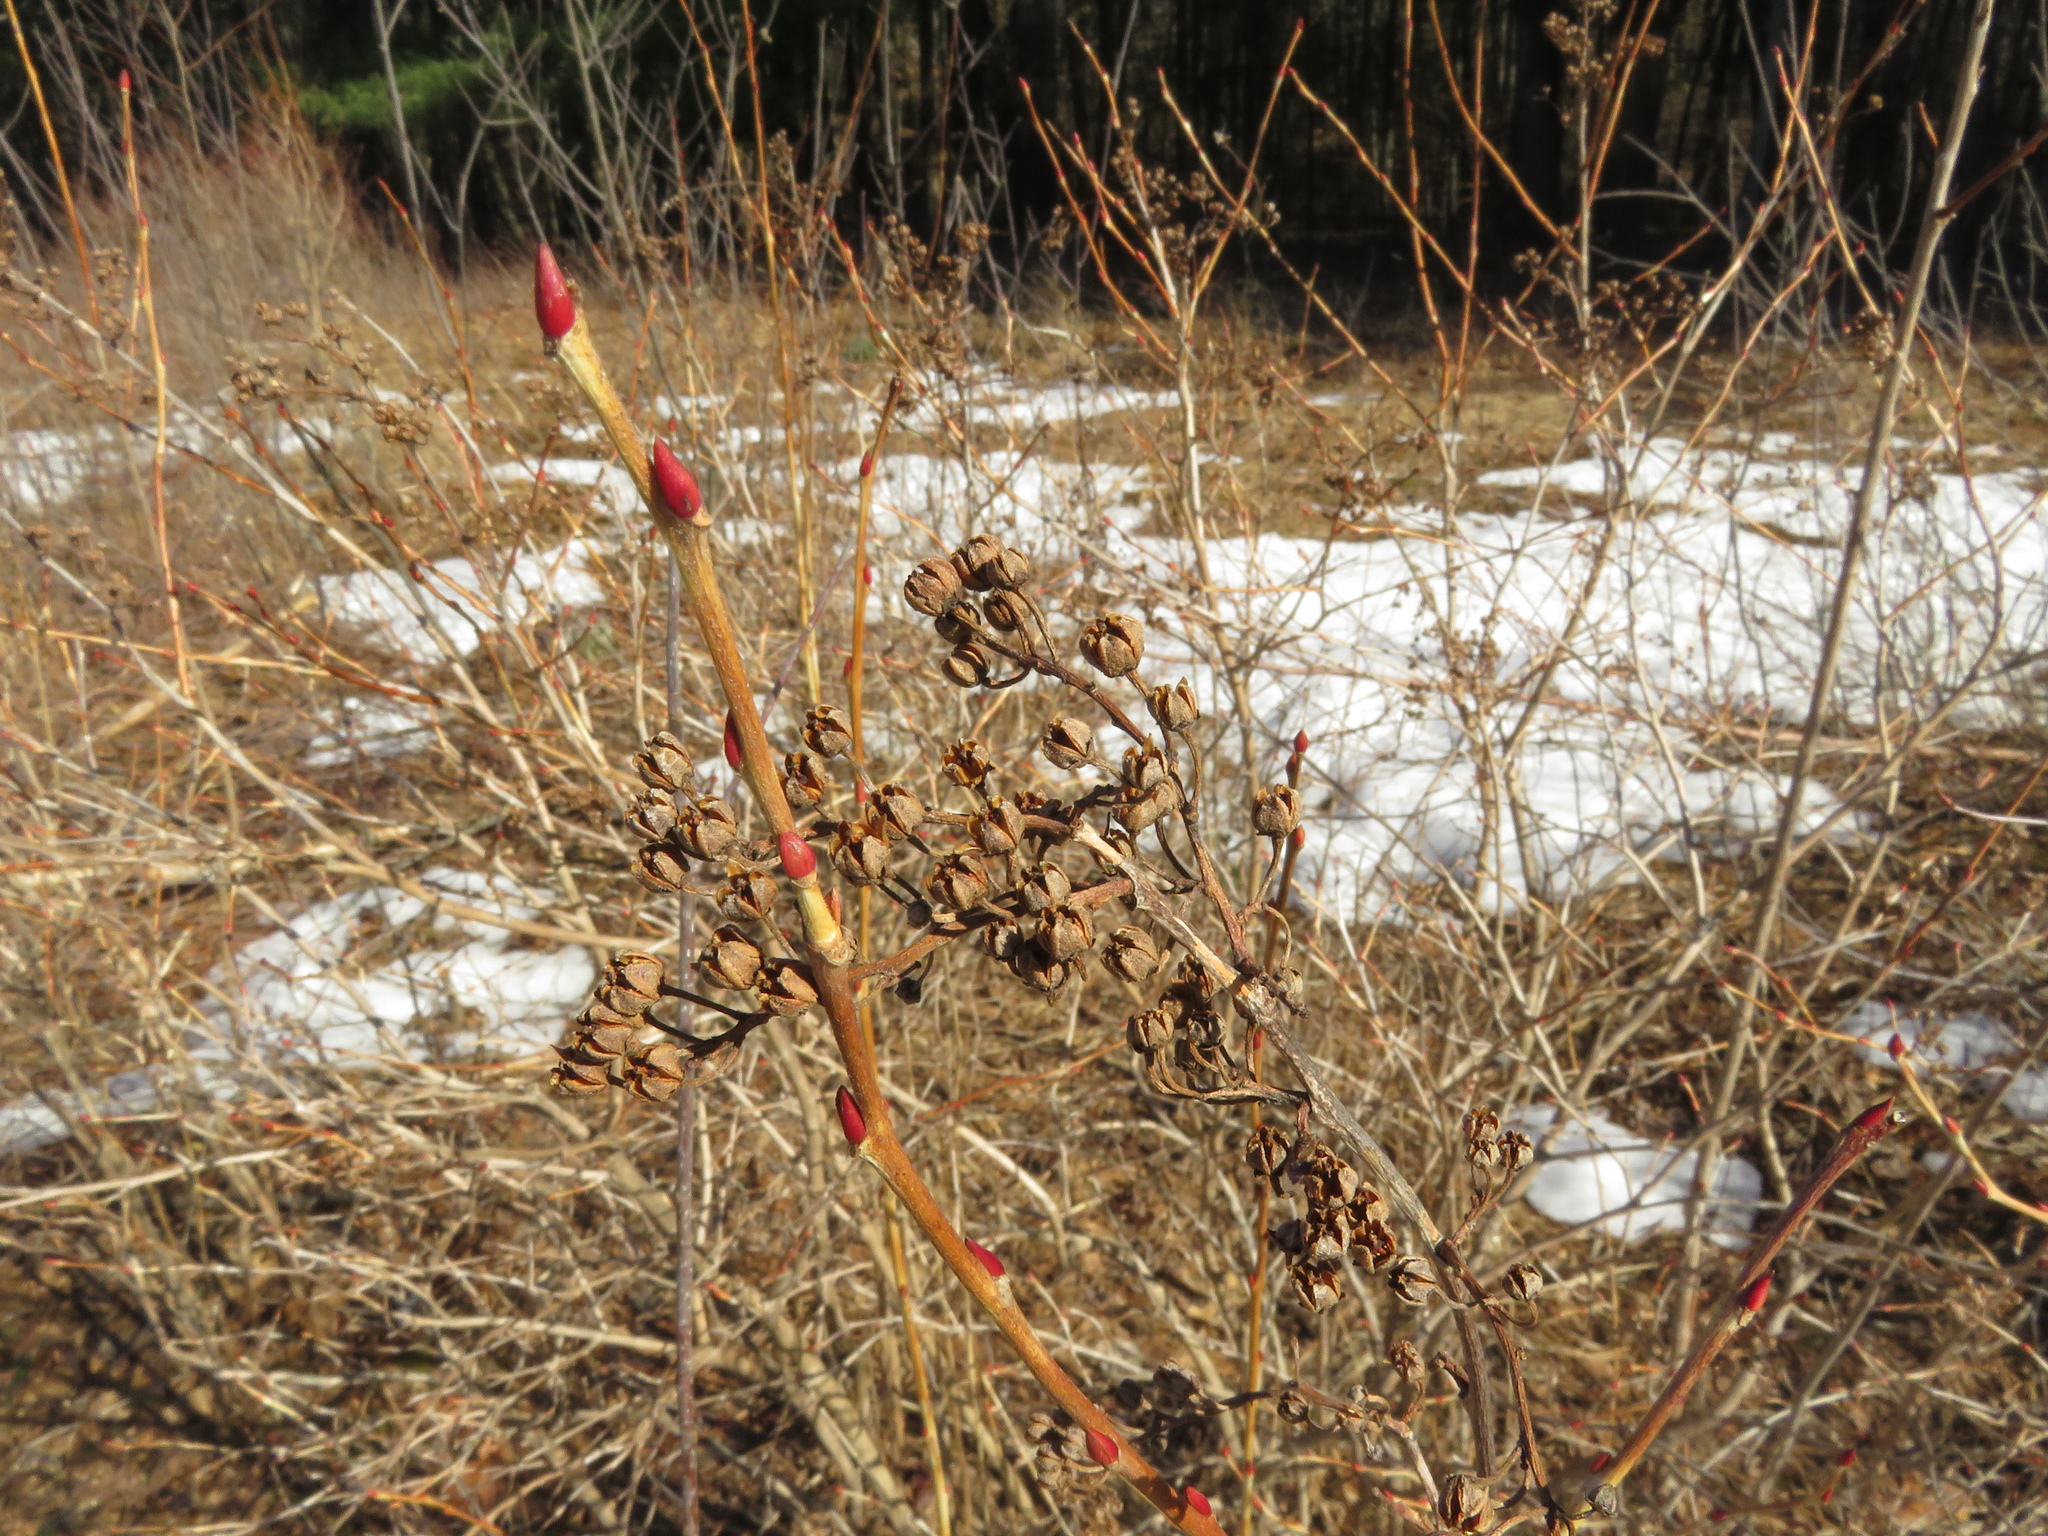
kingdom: Plantae
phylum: Tracheophyta
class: Magnoliopsida
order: Ericales
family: Ericaceae
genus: Lyonia
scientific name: Lyonia ligustrina
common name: Maleberry
